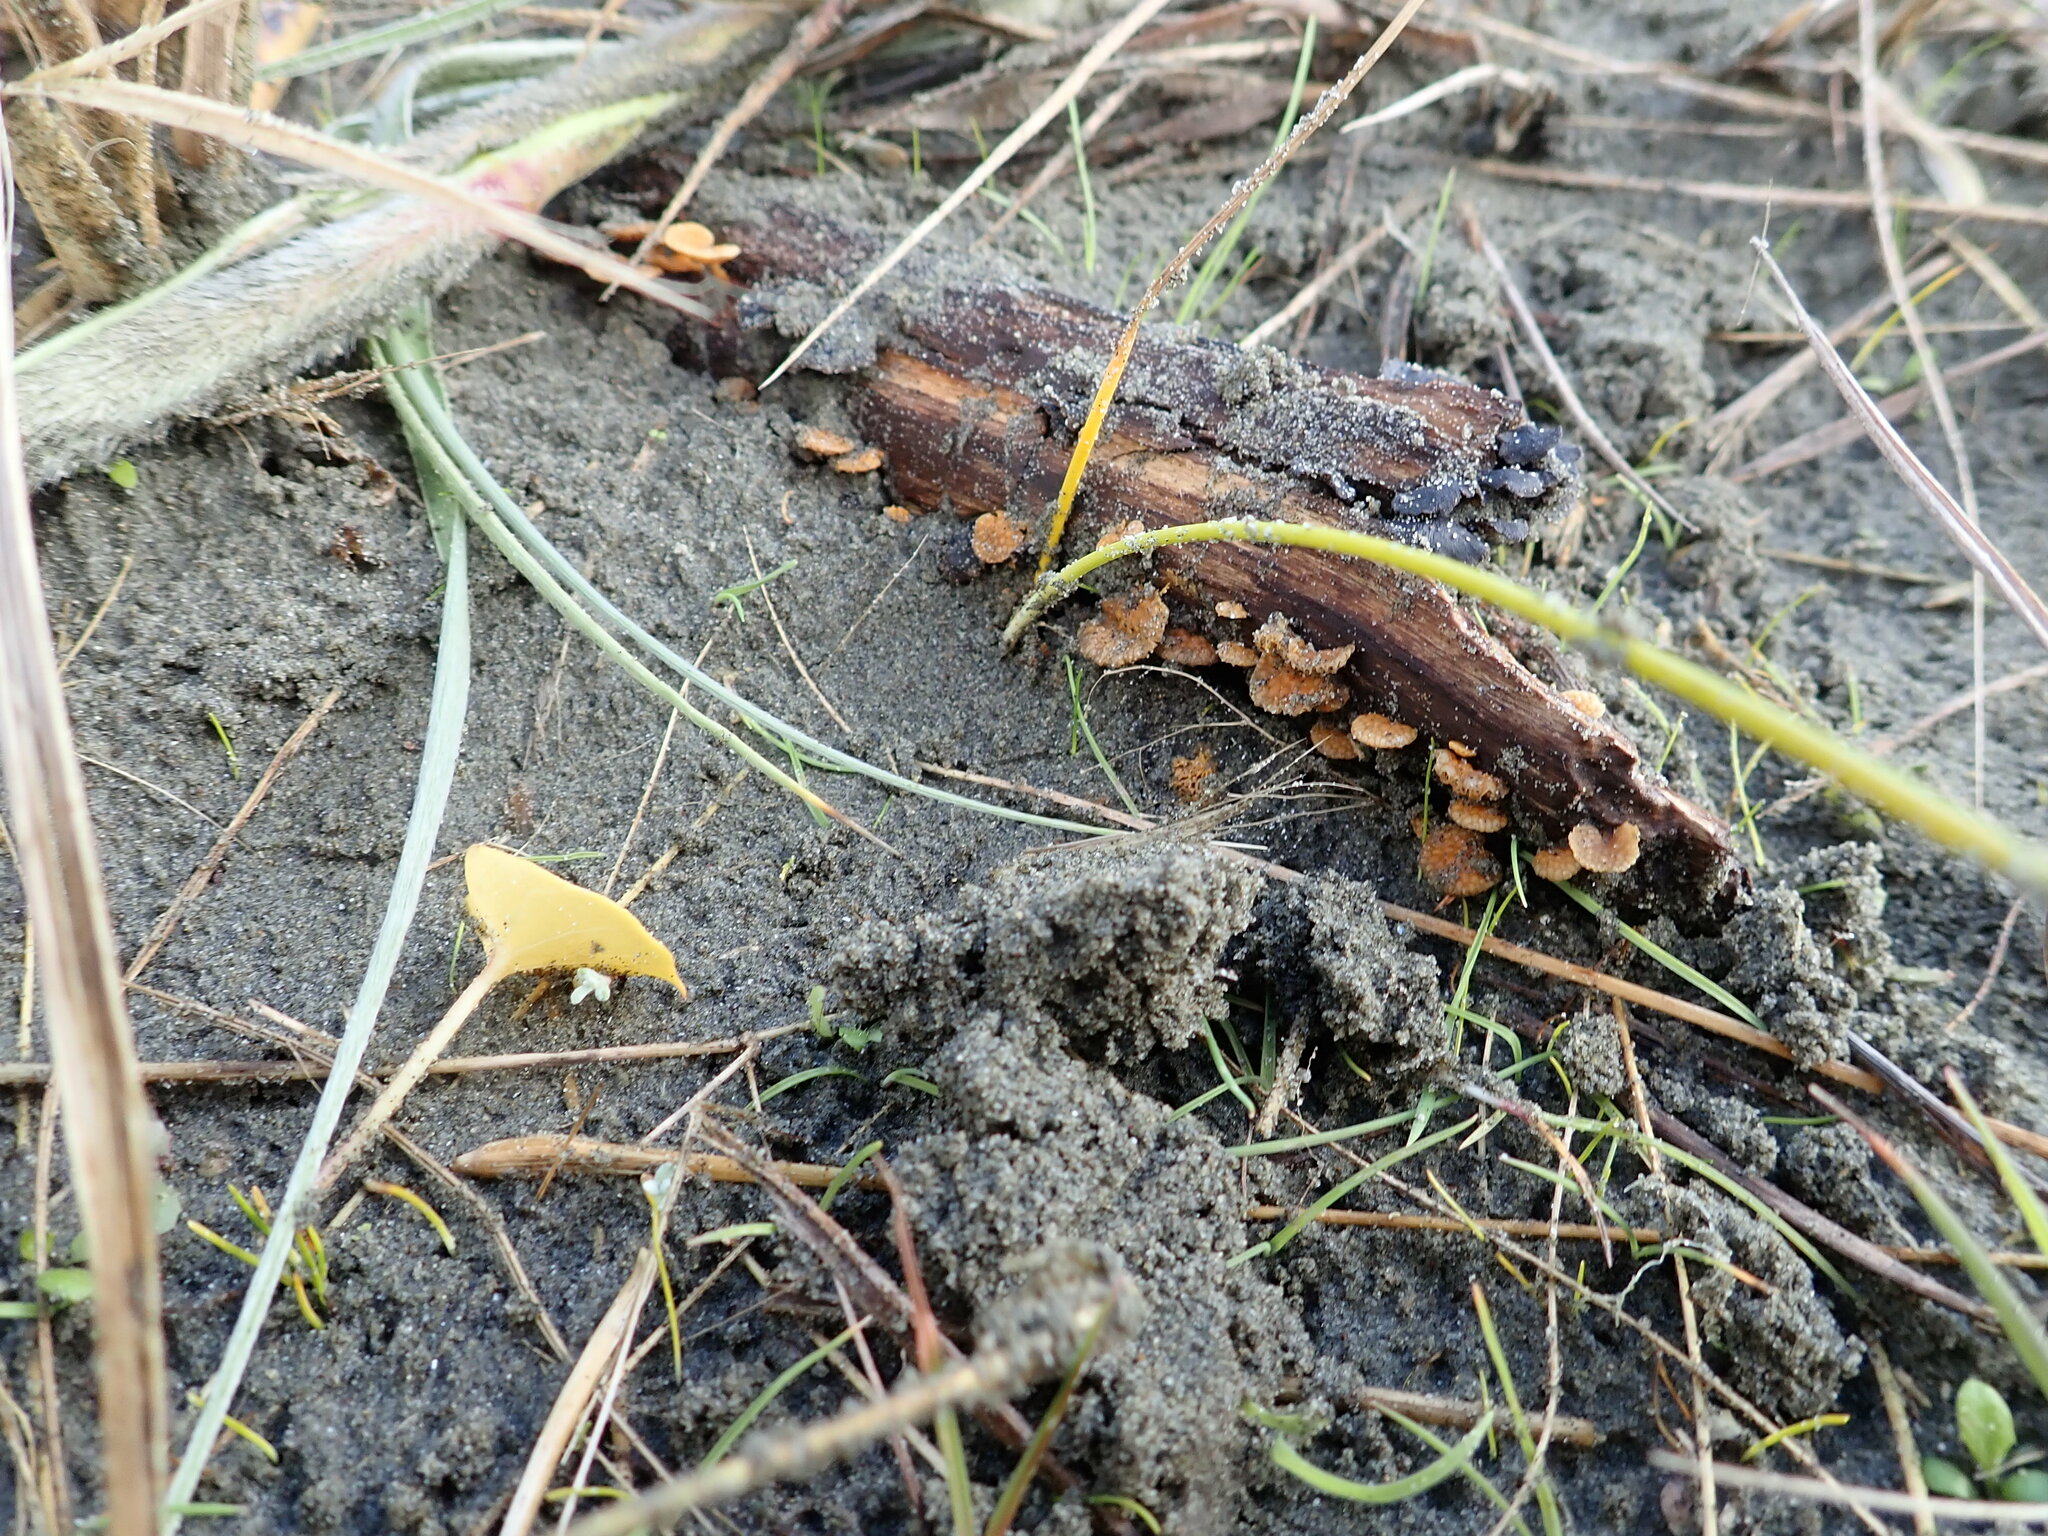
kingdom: Fungi
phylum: Basidiomycota
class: Agaricomycetes
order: Agaricales
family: Mycenaceae
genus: Favolaschia
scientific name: Favolaschia claudopus
